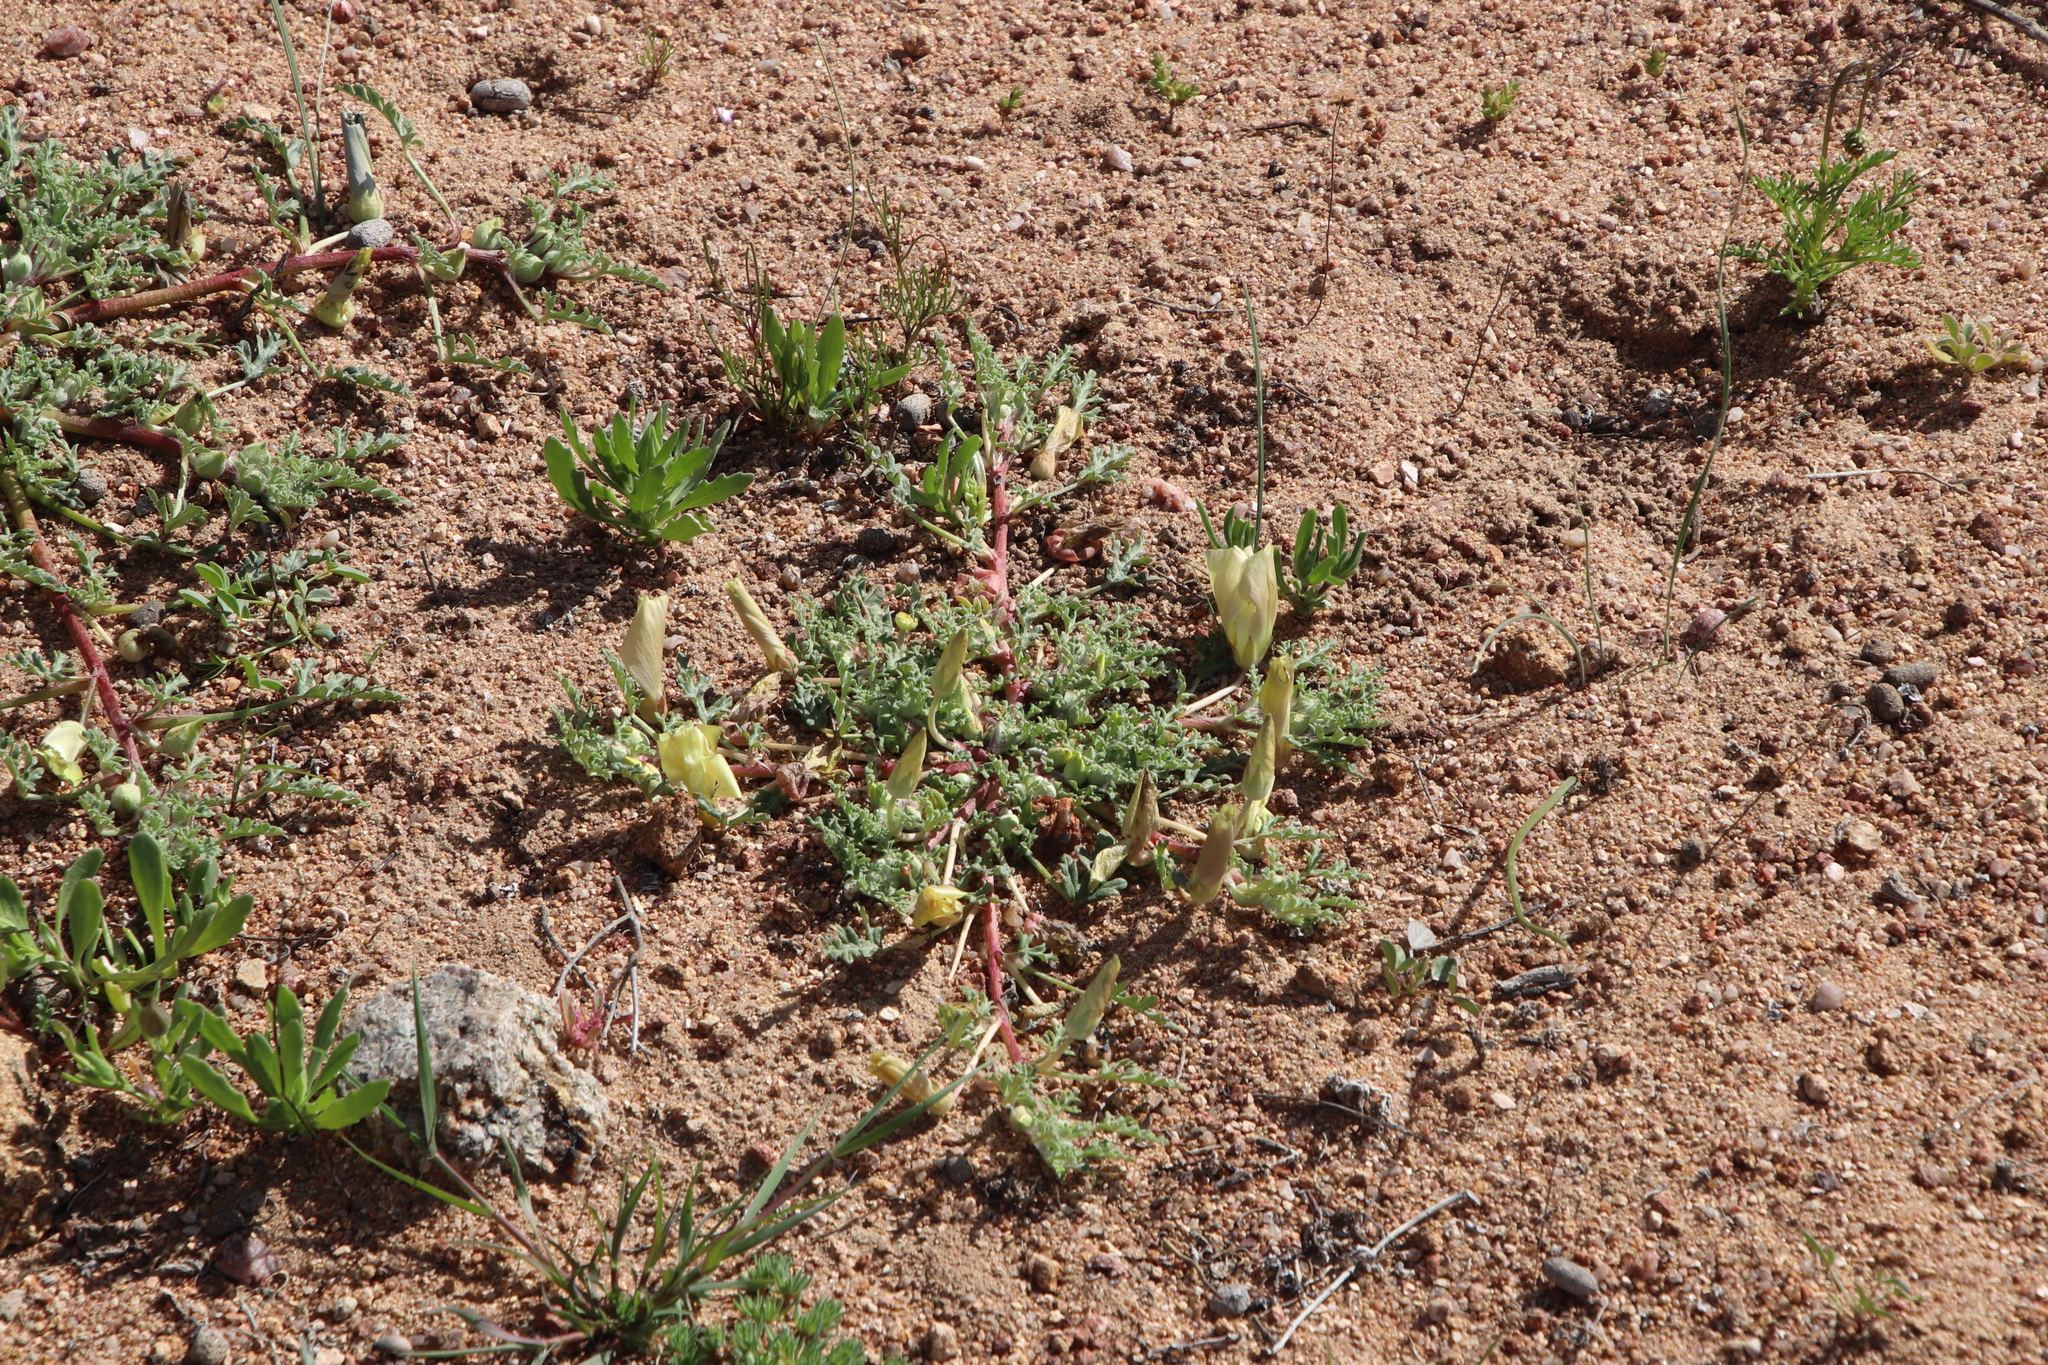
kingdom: Plantae
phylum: Tracheophyta
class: Magnoliopsida
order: Malvales
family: Neuradaceae
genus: Grielum
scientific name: Grielum humifusum
